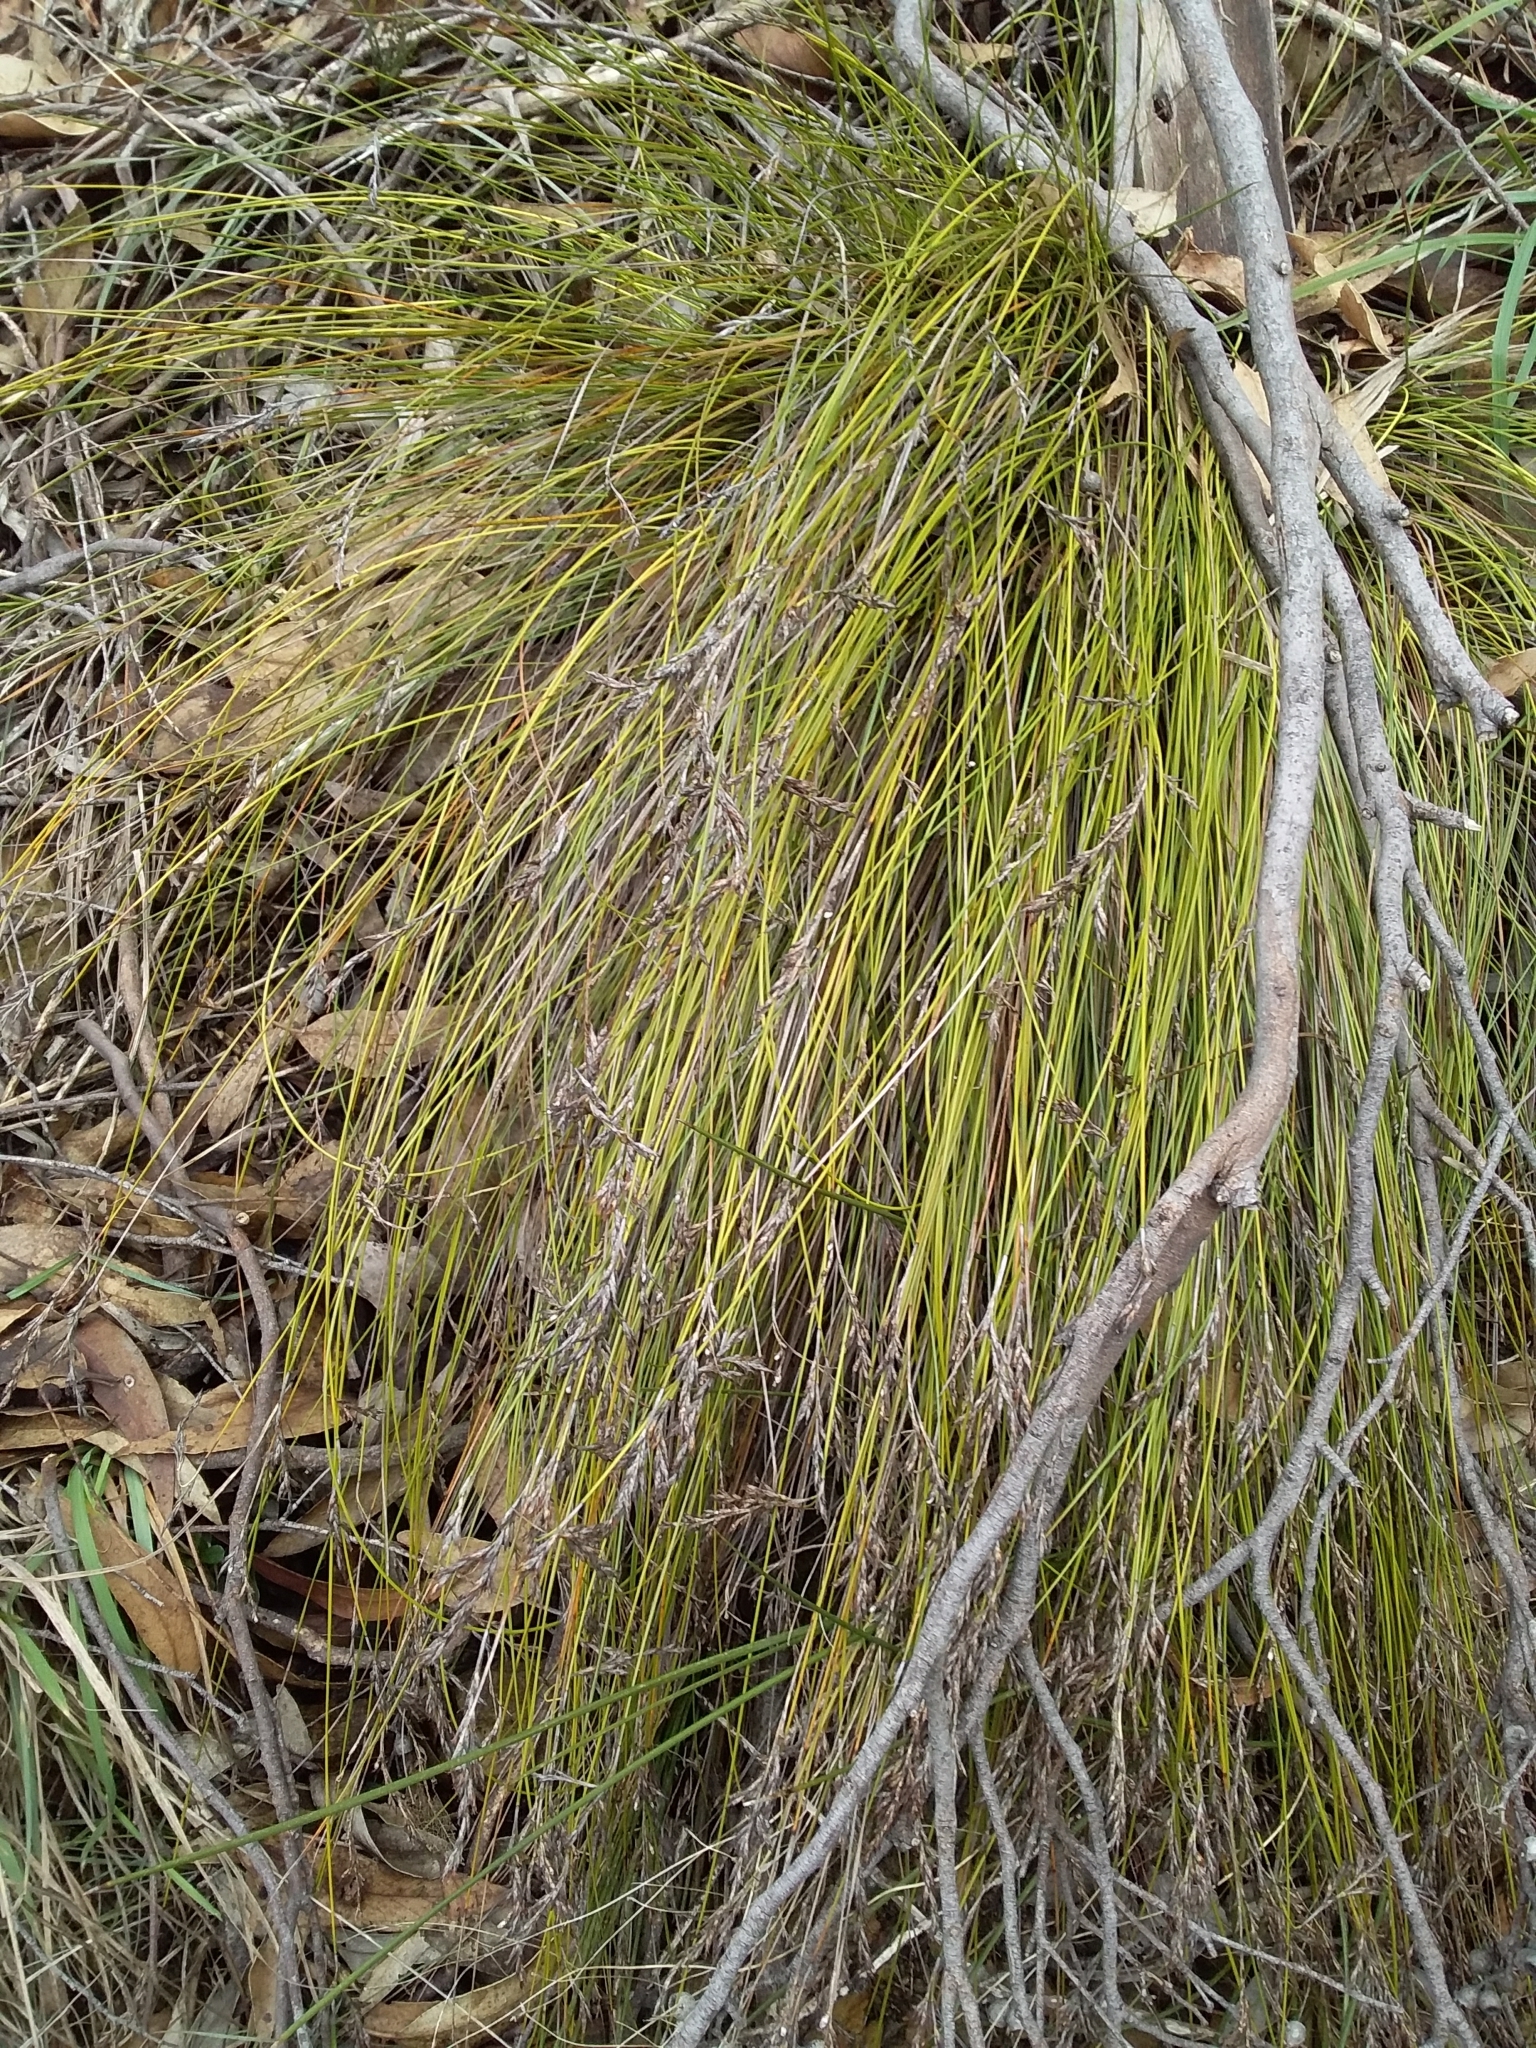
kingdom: Plantae
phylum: Tracheophyta
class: Liliopsida
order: Poales
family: Cyperaceae
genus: Lepidosperma
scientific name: Lepidosperma semiteres
